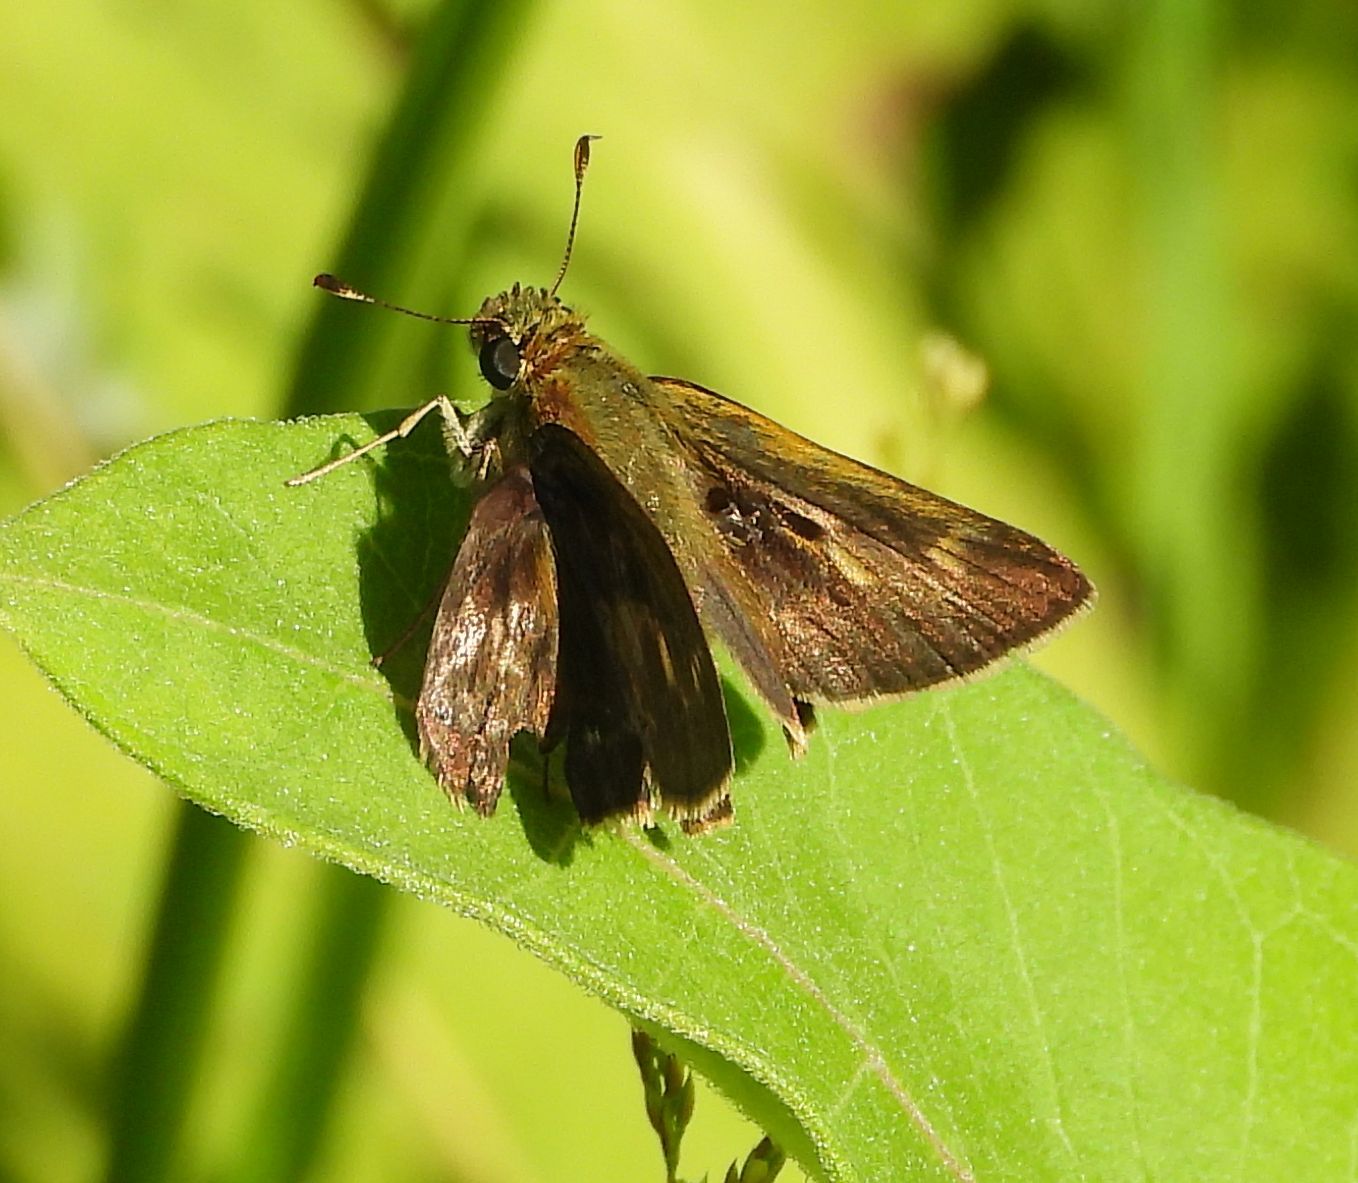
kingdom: Animalia
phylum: Arthropoda
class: Insecta
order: Lepidoptera
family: Hesperiidae
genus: Polites
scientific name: Polites egeremet
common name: Northern broken-dash
